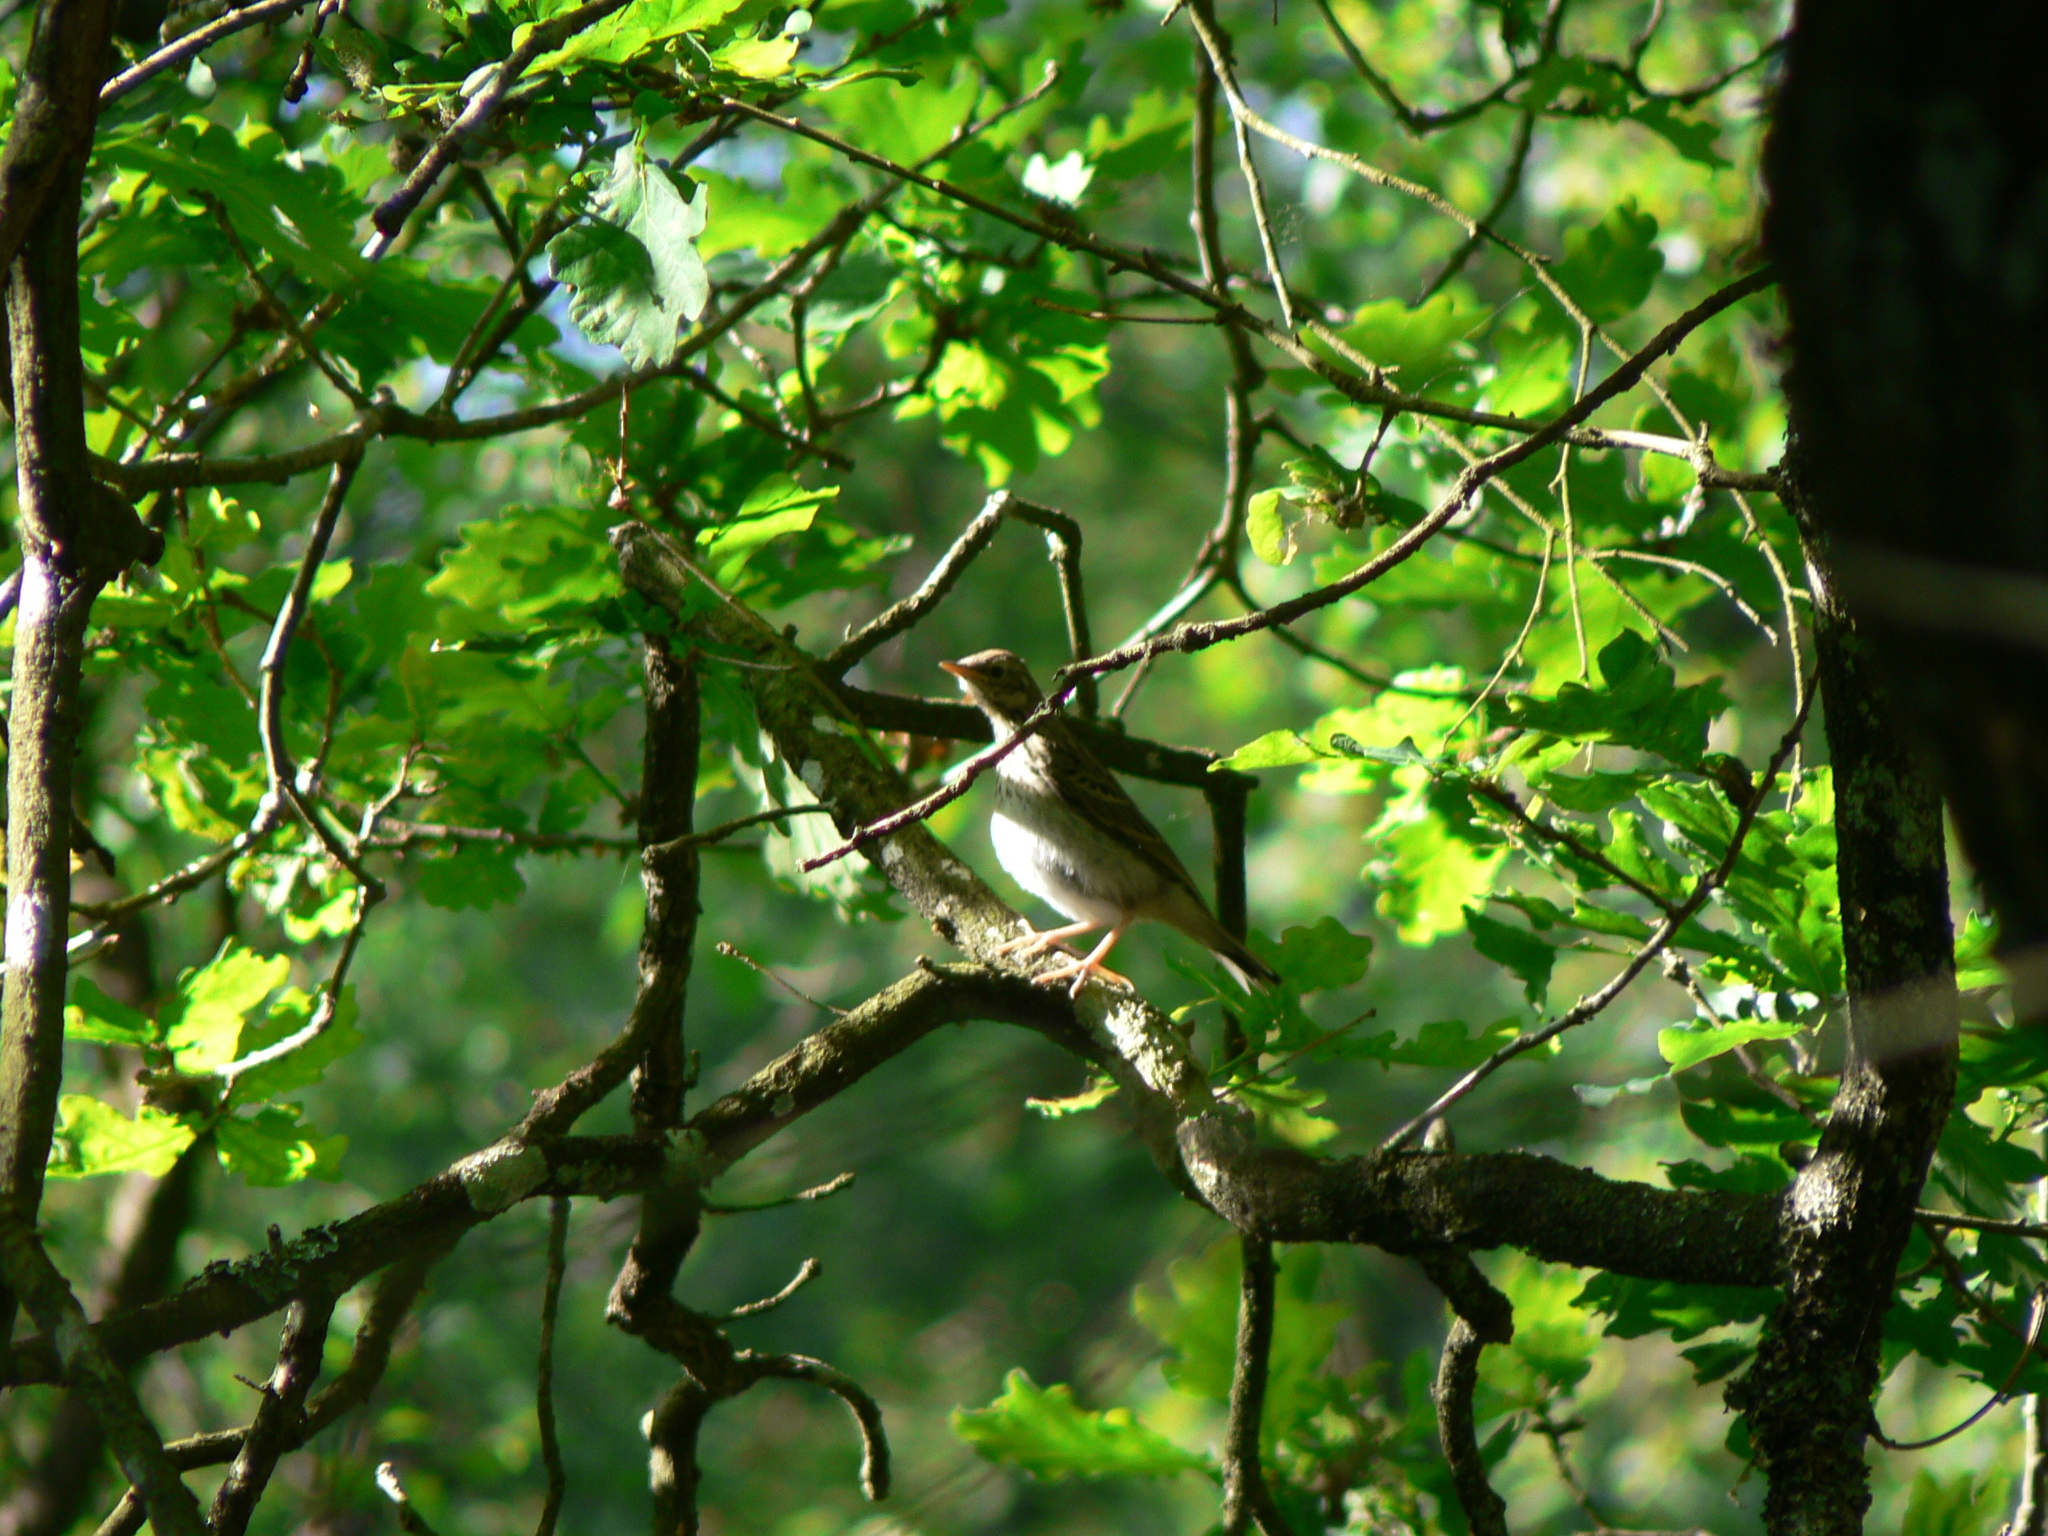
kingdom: Animalia
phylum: Chordata
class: Aves
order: Passeriformes
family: Motacillidae
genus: Anthus
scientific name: Anthus trivialis
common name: Tree pipit
